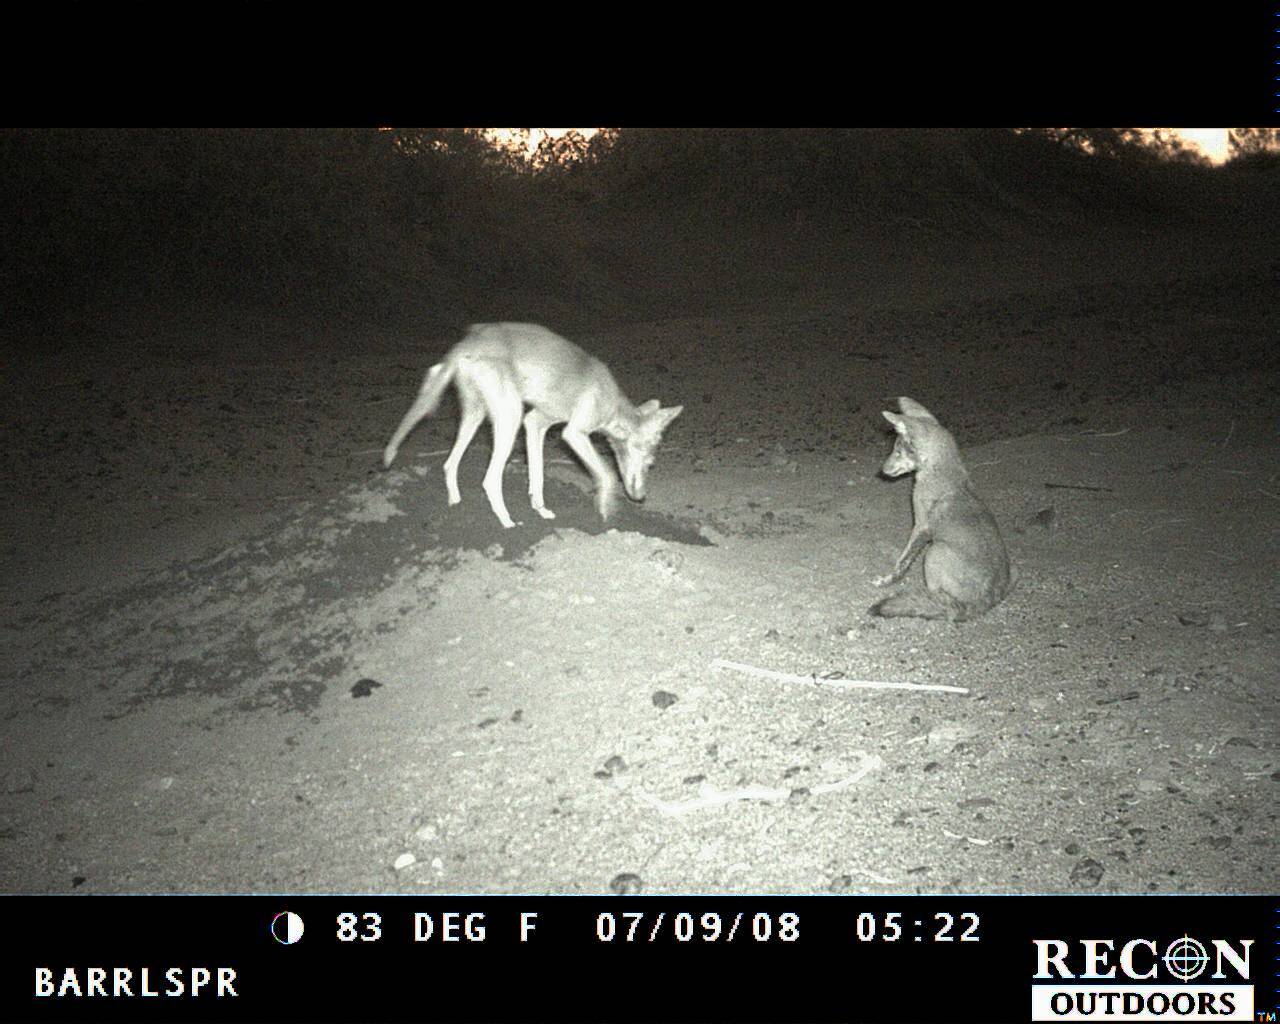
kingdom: Animalia
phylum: Chordata
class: Mammalia
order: Carnivora
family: Canidae
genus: Canis
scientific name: Canis latrans
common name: Coyote
